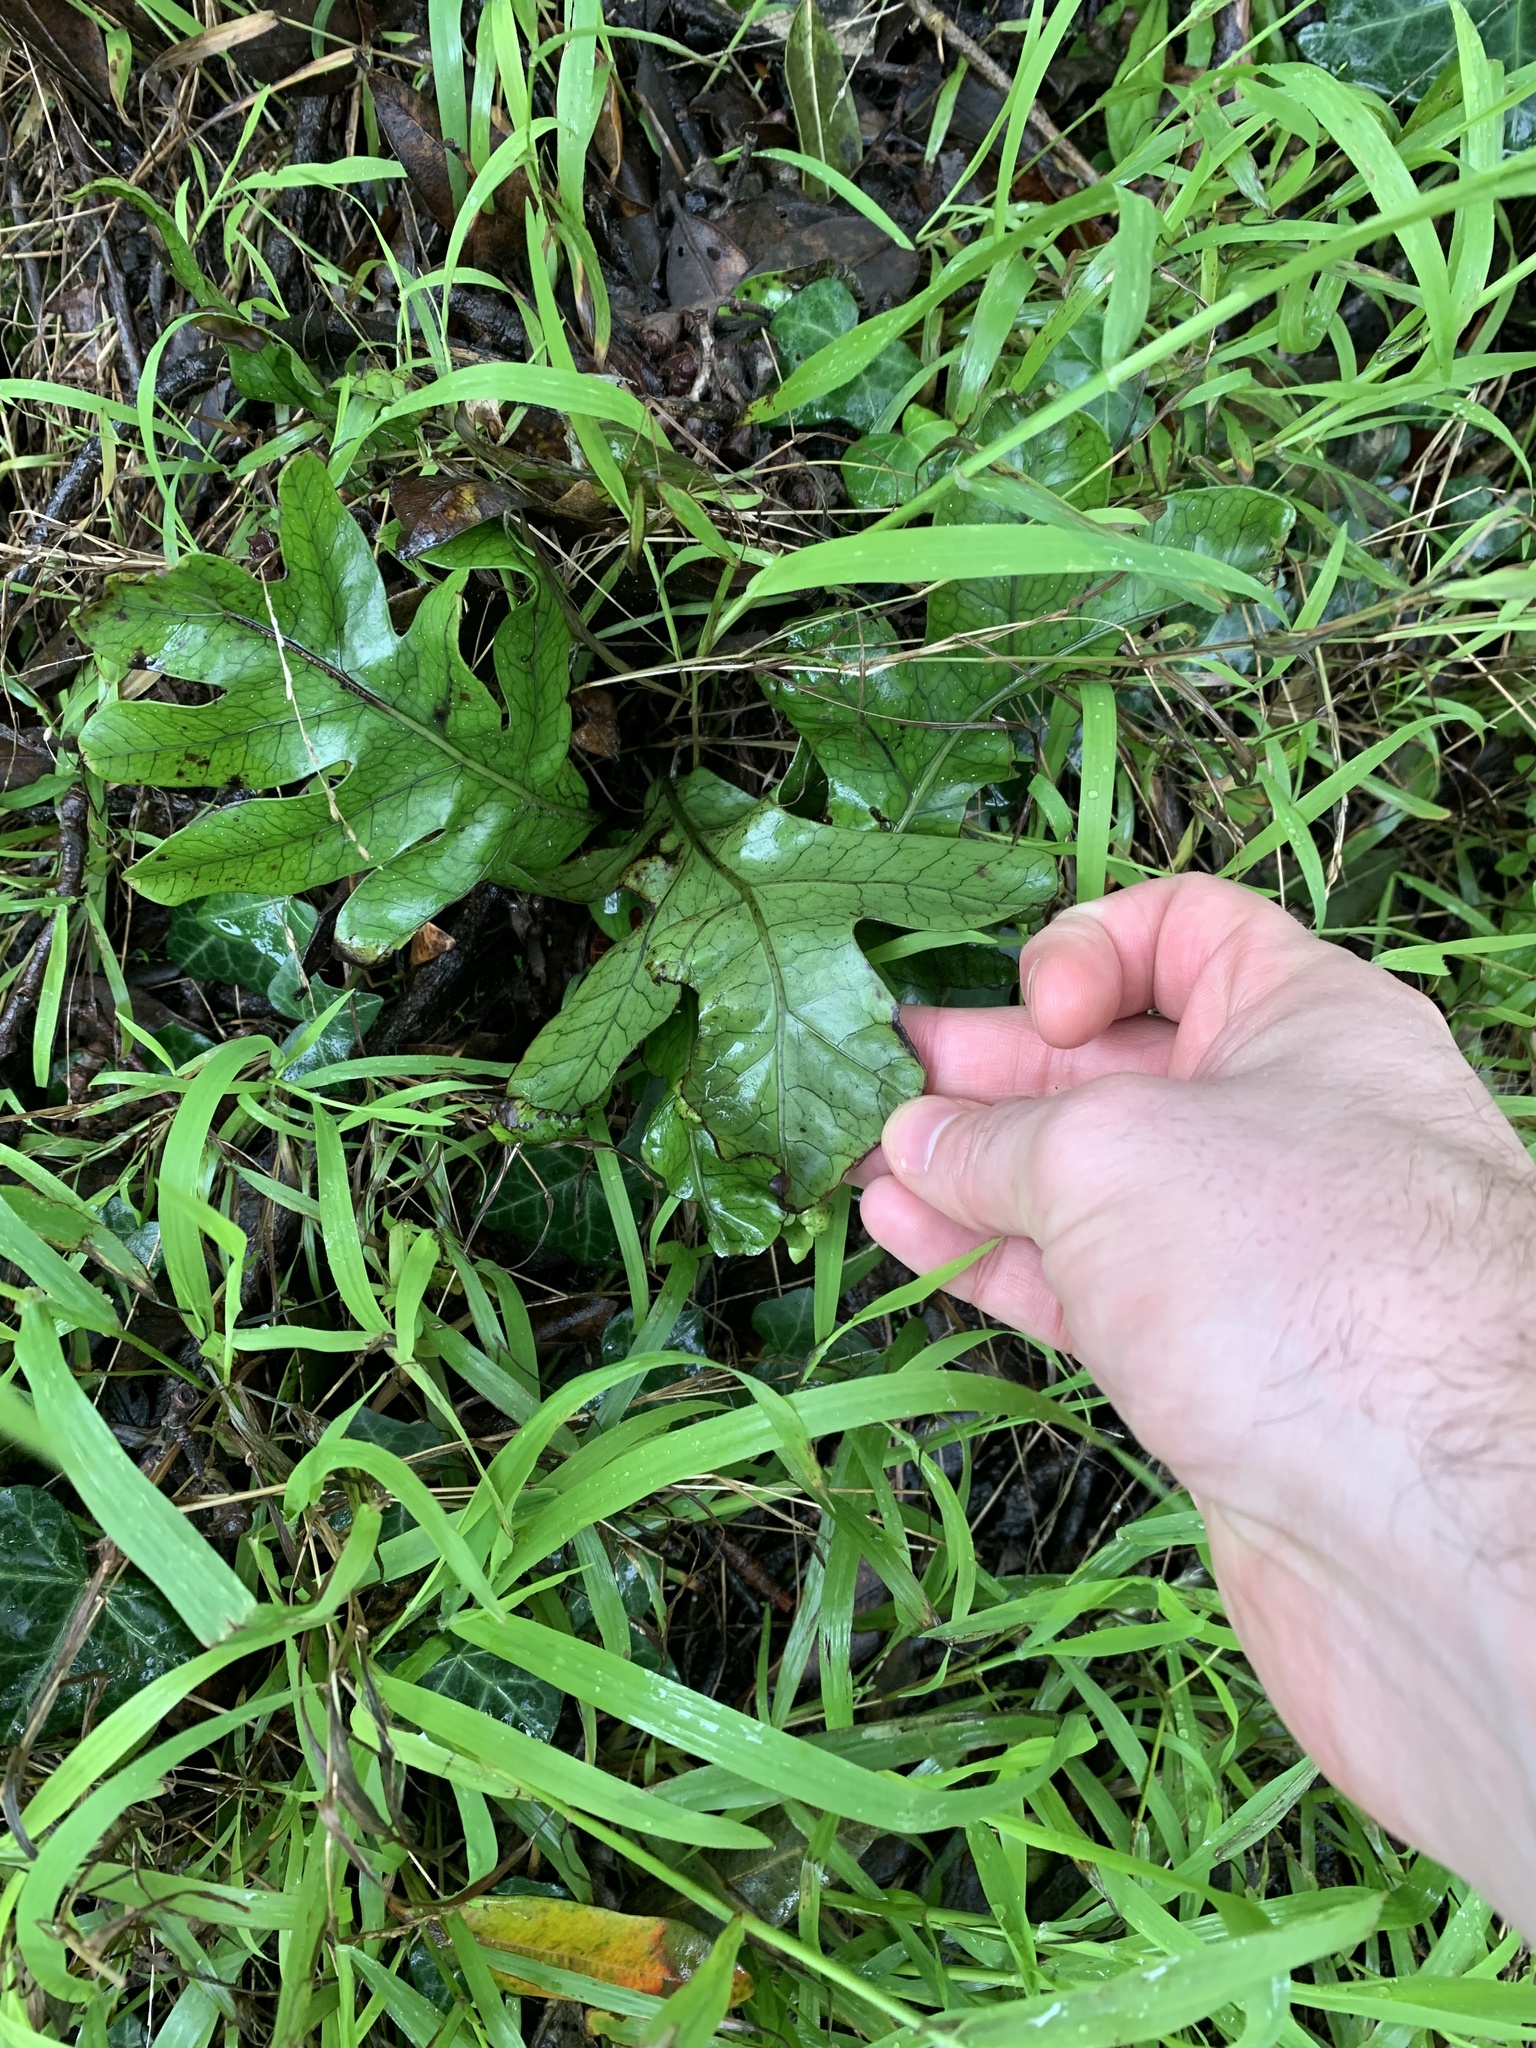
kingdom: Plantae
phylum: Tracheophyta
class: Polypodiopsida
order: Polypodiales
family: Polypodiaceae
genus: Lecanopteris
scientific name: Lecanopteris pustulata
